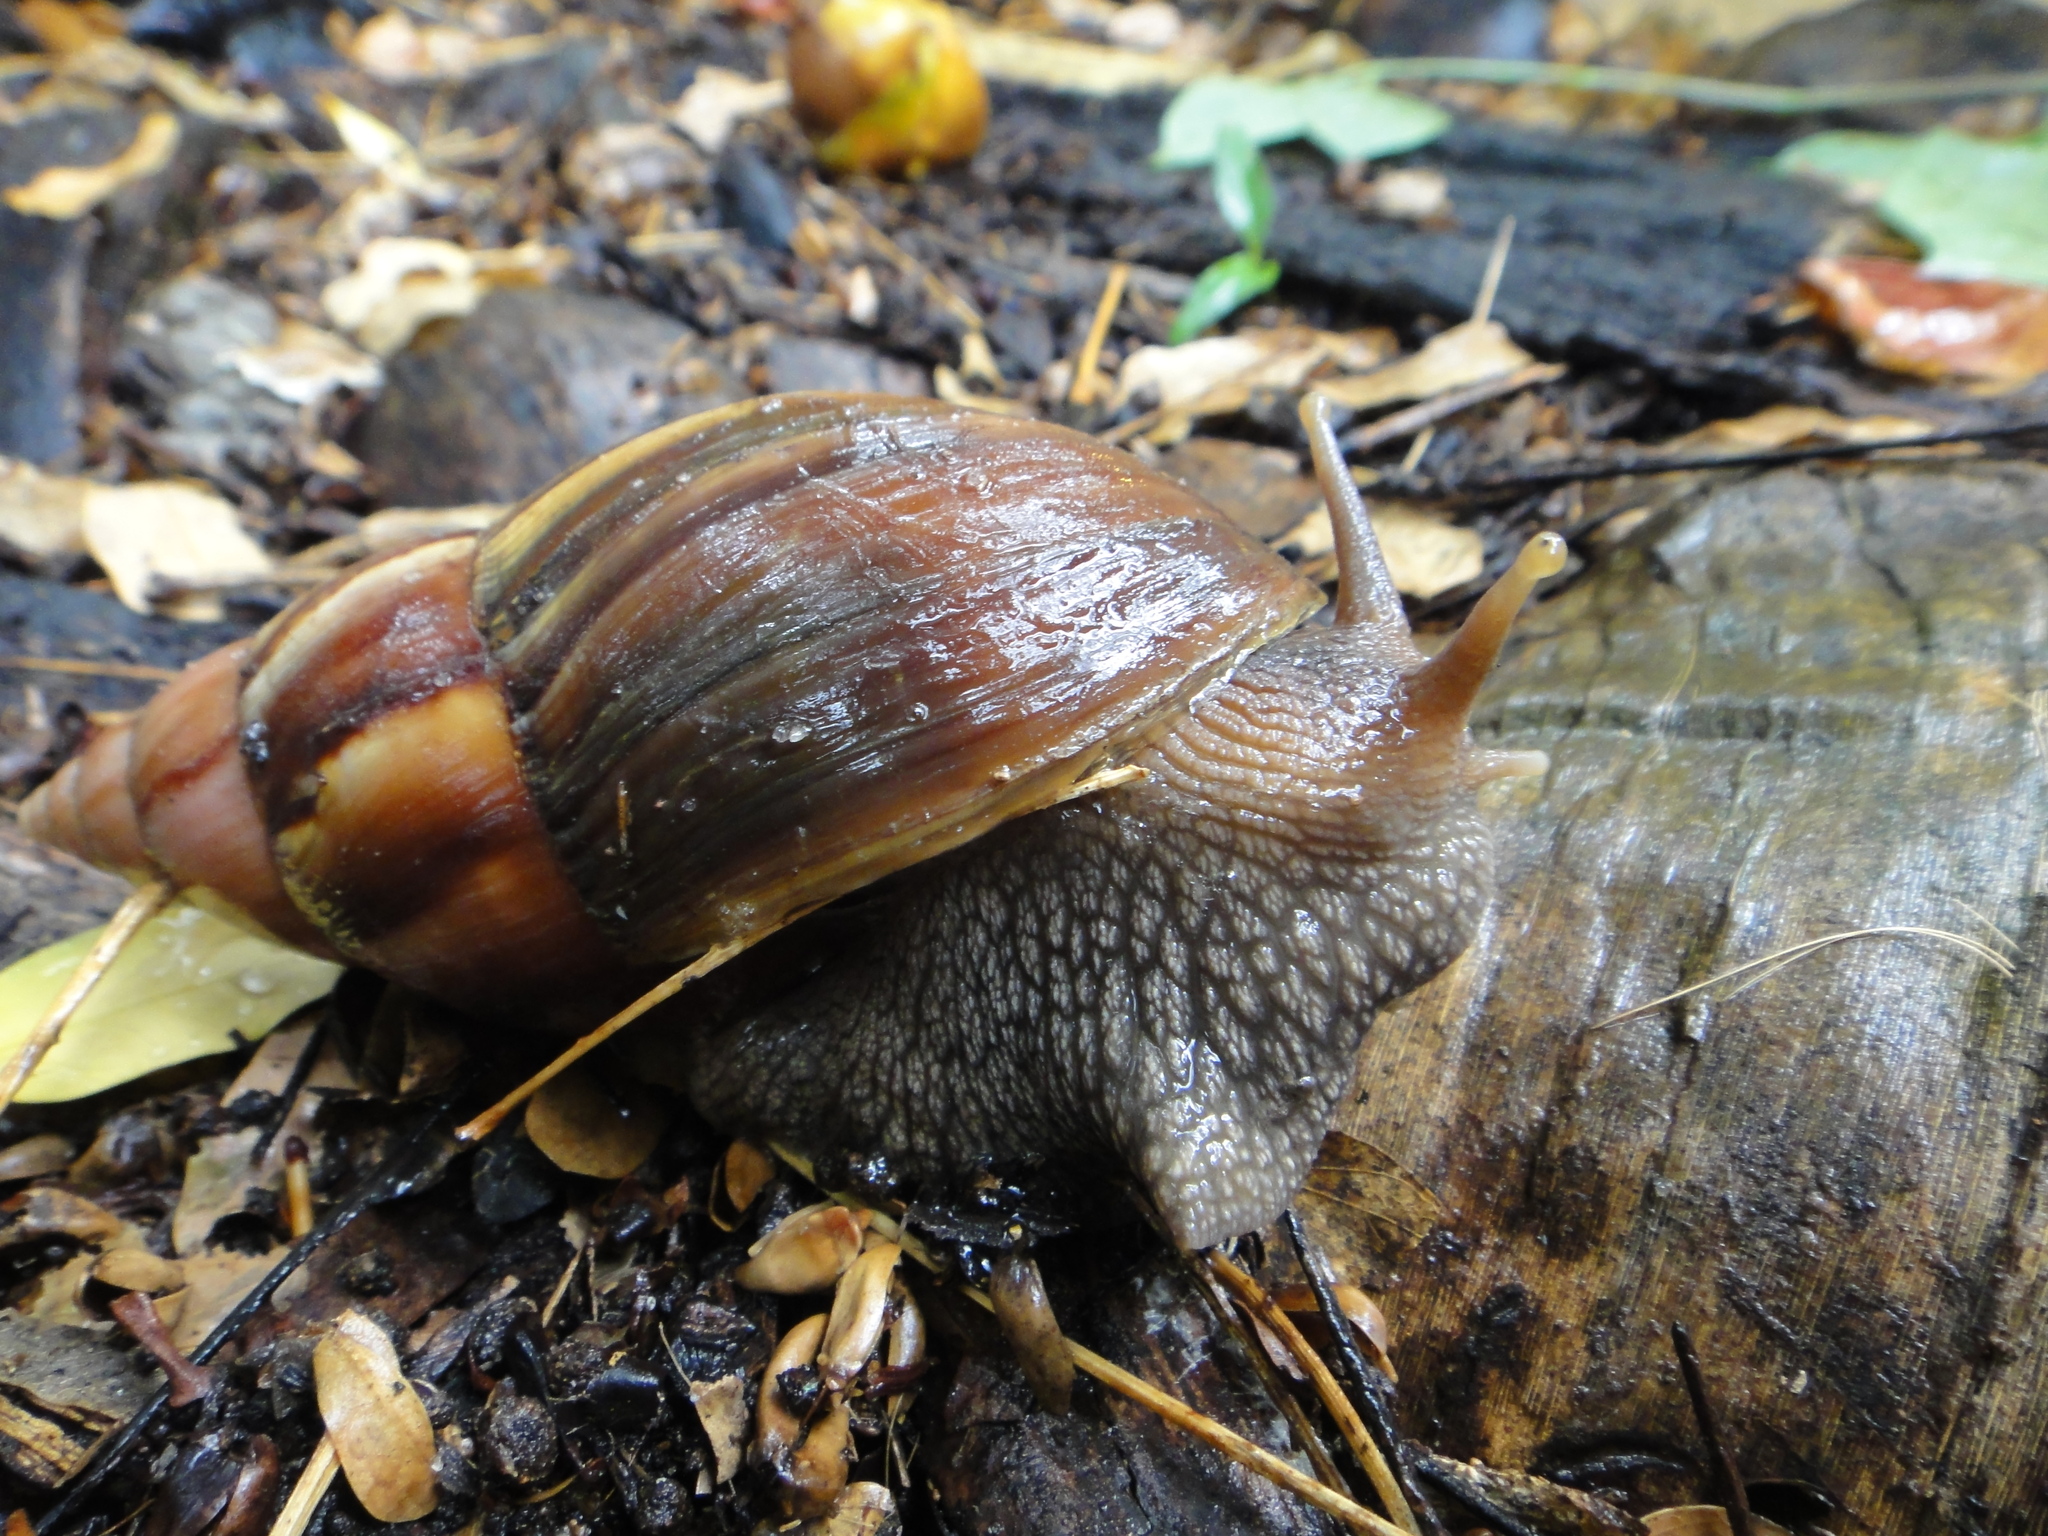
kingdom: Animalia
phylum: Mollusca
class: Gastropoda
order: Stylommatophora
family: Achatinidae
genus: Lissachatina
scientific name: Lissachatina fulica
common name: Giant african snail
